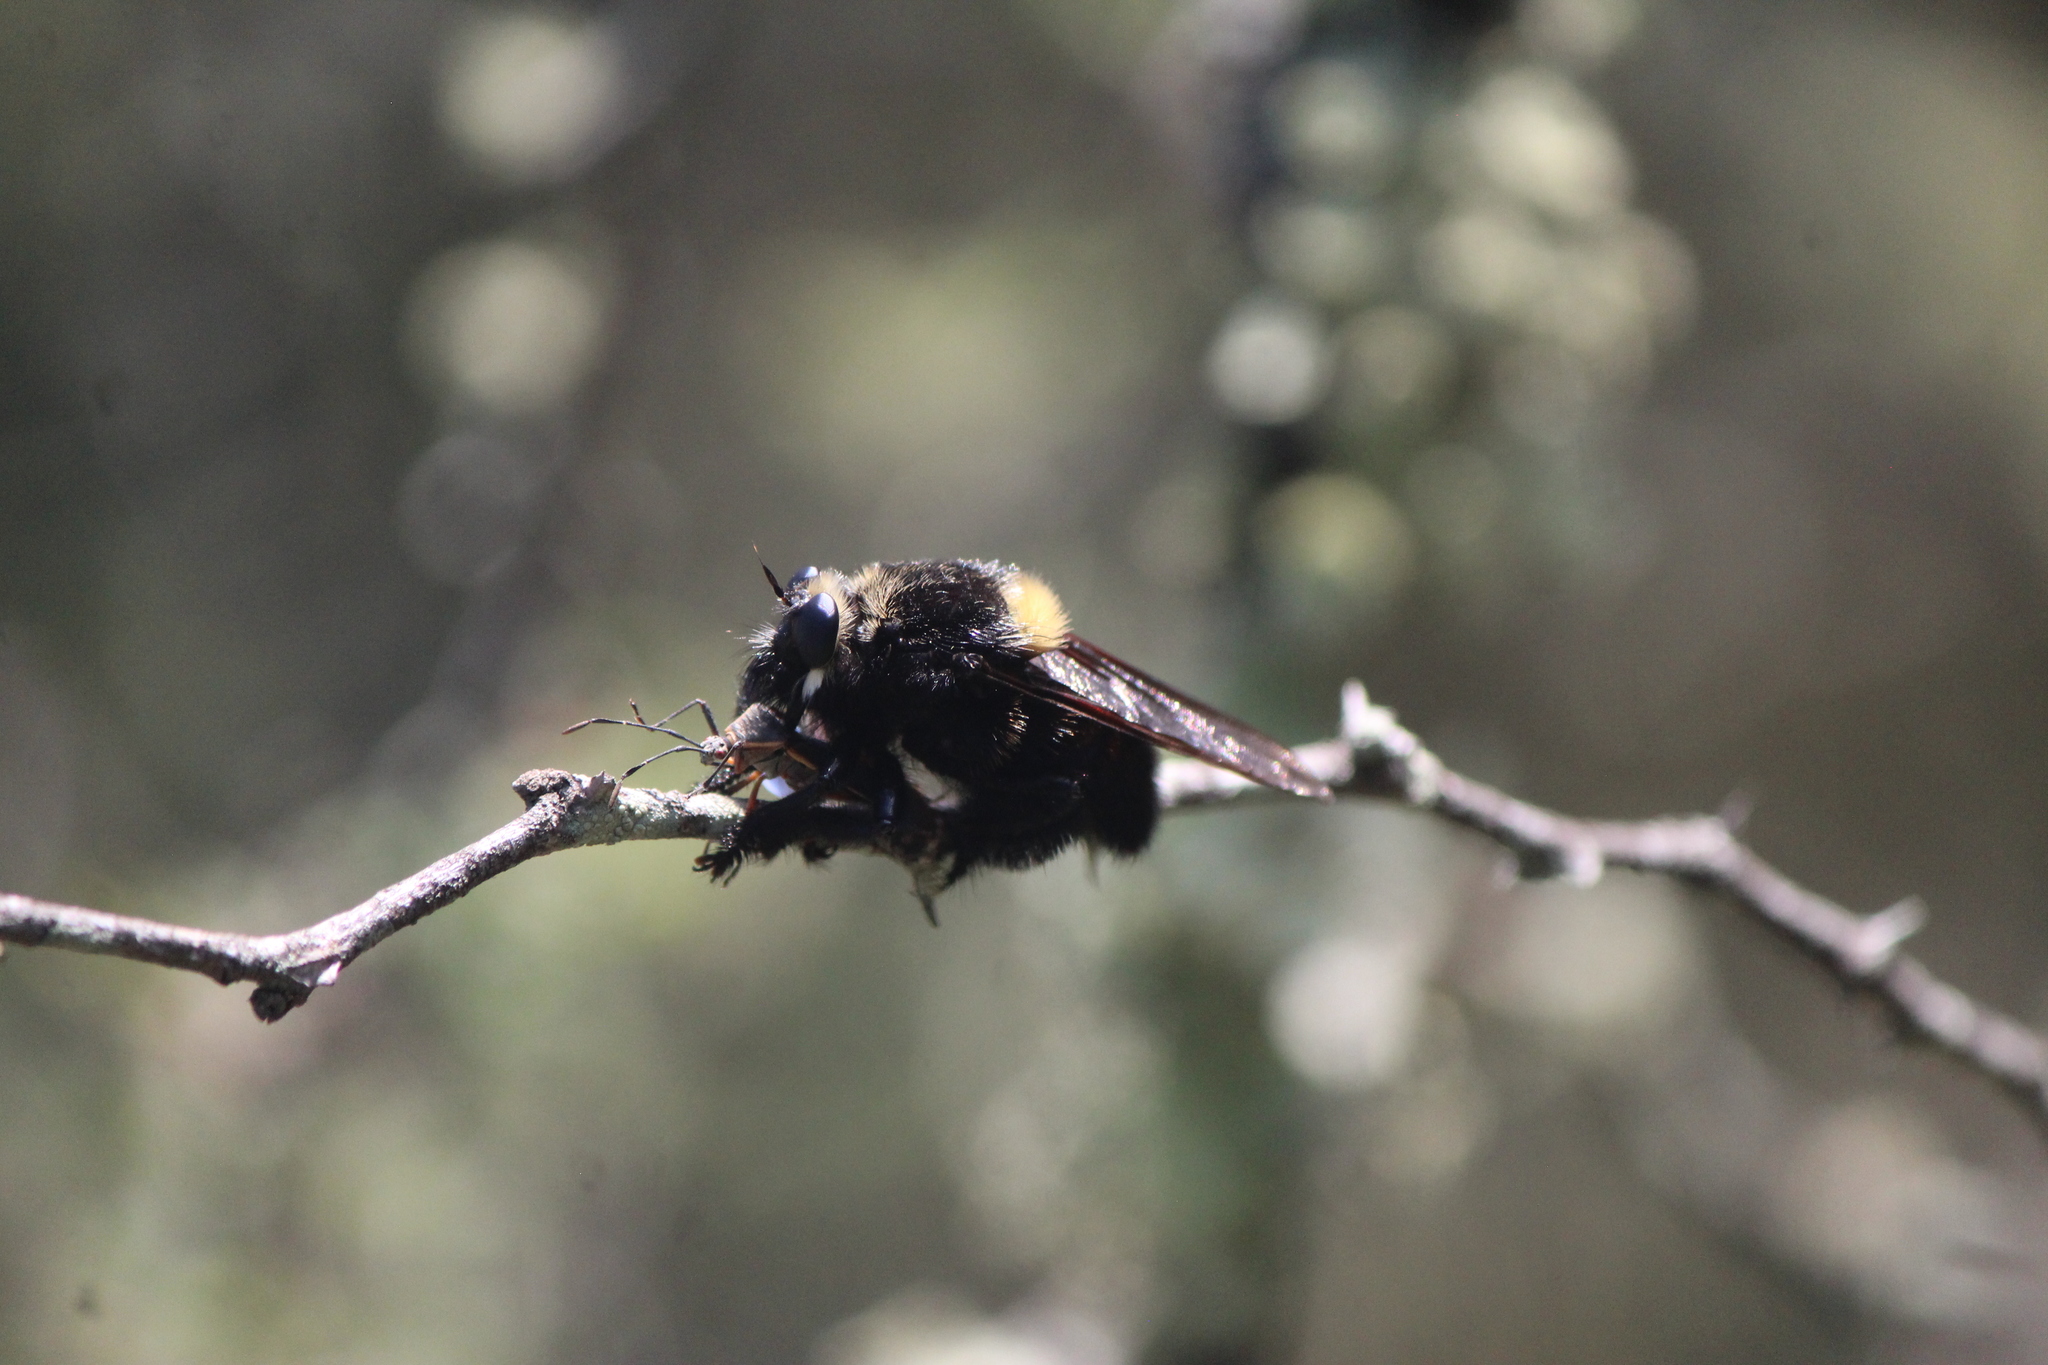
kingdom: Animalia
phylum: Arthropoda
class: Insecta
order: Diptera
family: Asilidae
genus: Mallophora
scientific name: Mallophora leschenaultii
